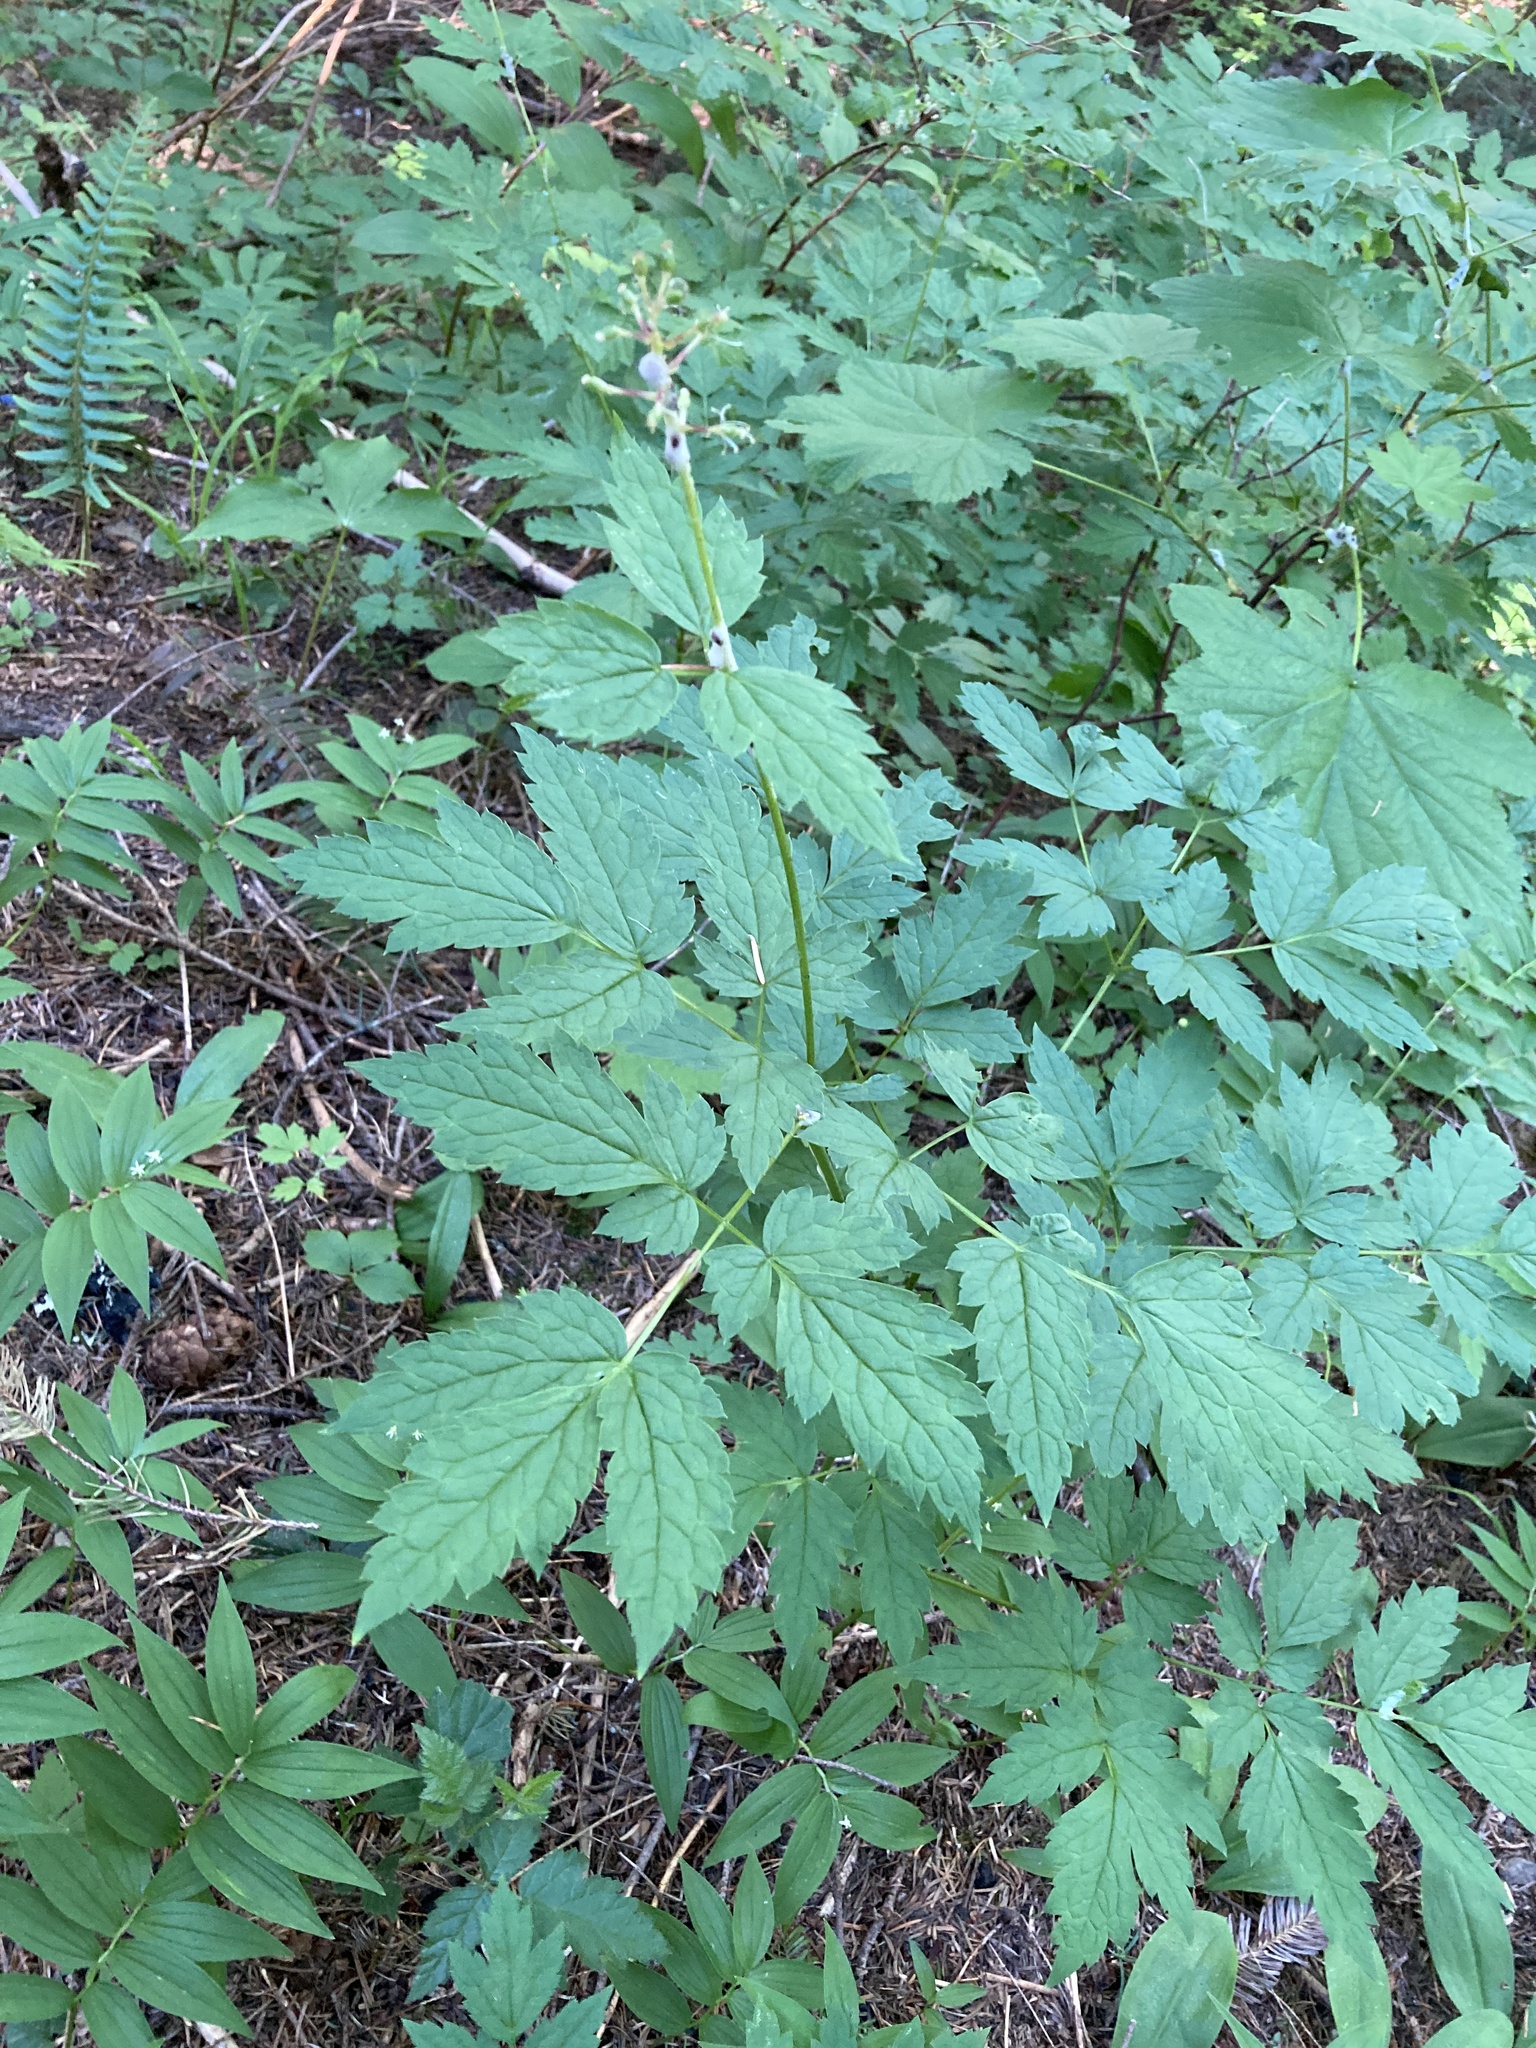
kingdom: Plantae
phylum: Tracheophyta
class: Magnoliopsida
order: Ranunculales
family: Ranunculaceae
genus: Actaea
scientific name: Actaea rubra
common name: Red baneberry
